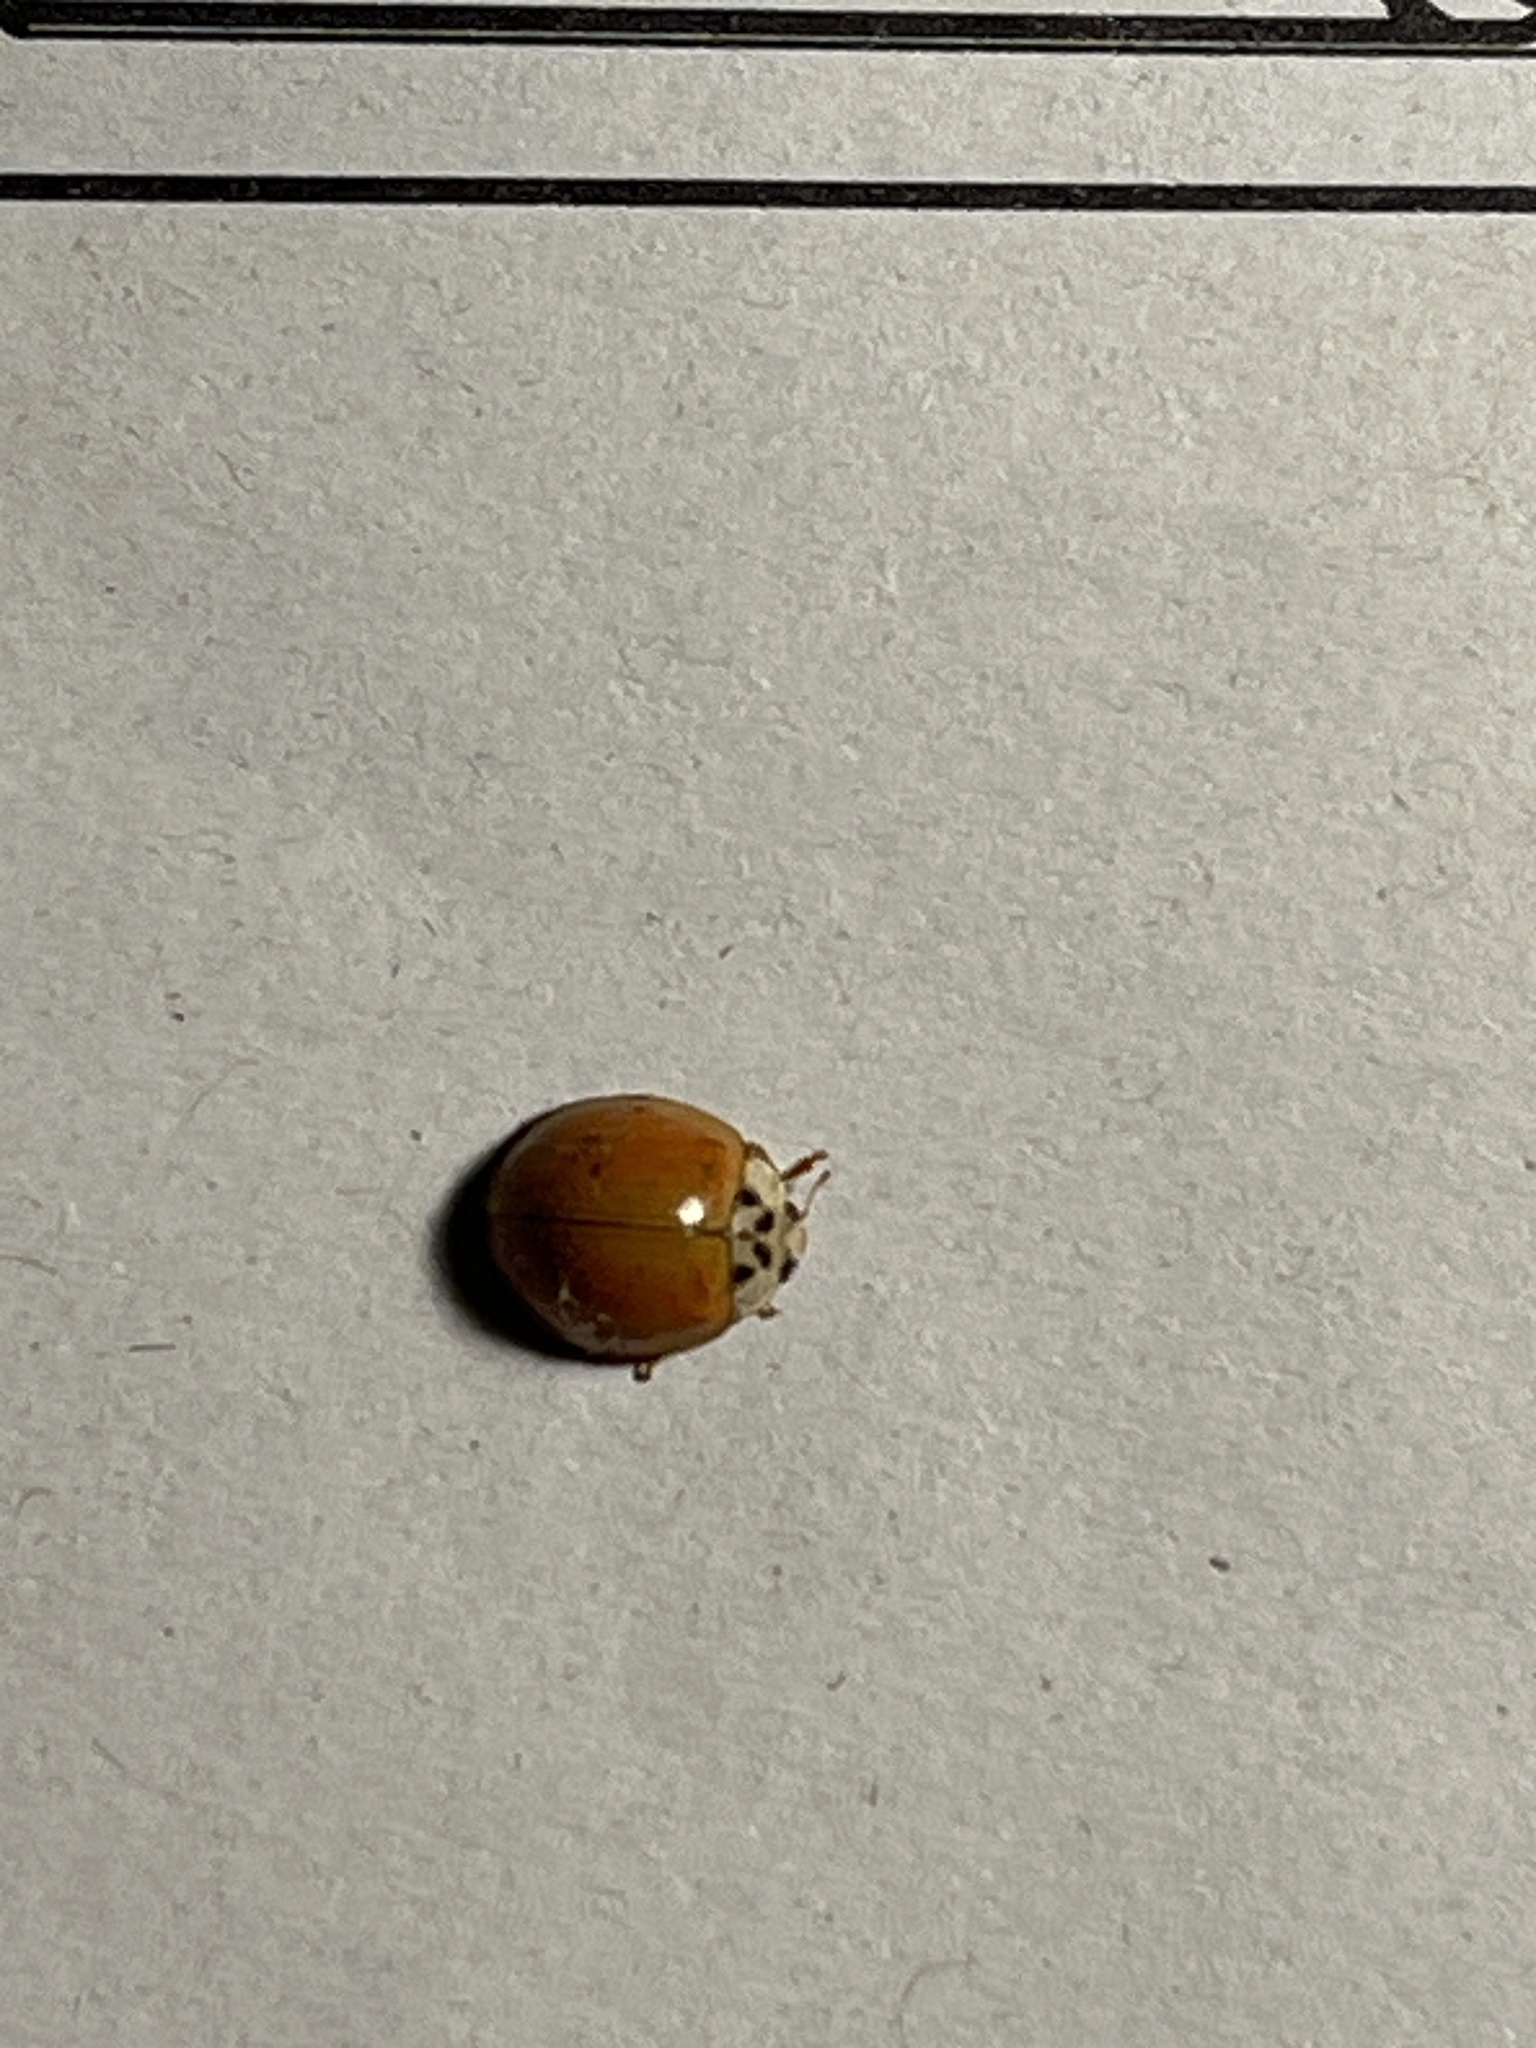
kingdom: Animalia
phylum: Arthropoda
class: Insecta
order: Coleoptera
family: Coccinellidae
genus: Harmonia
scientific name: Harmonia axyridis
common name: Harlequin ladybird
